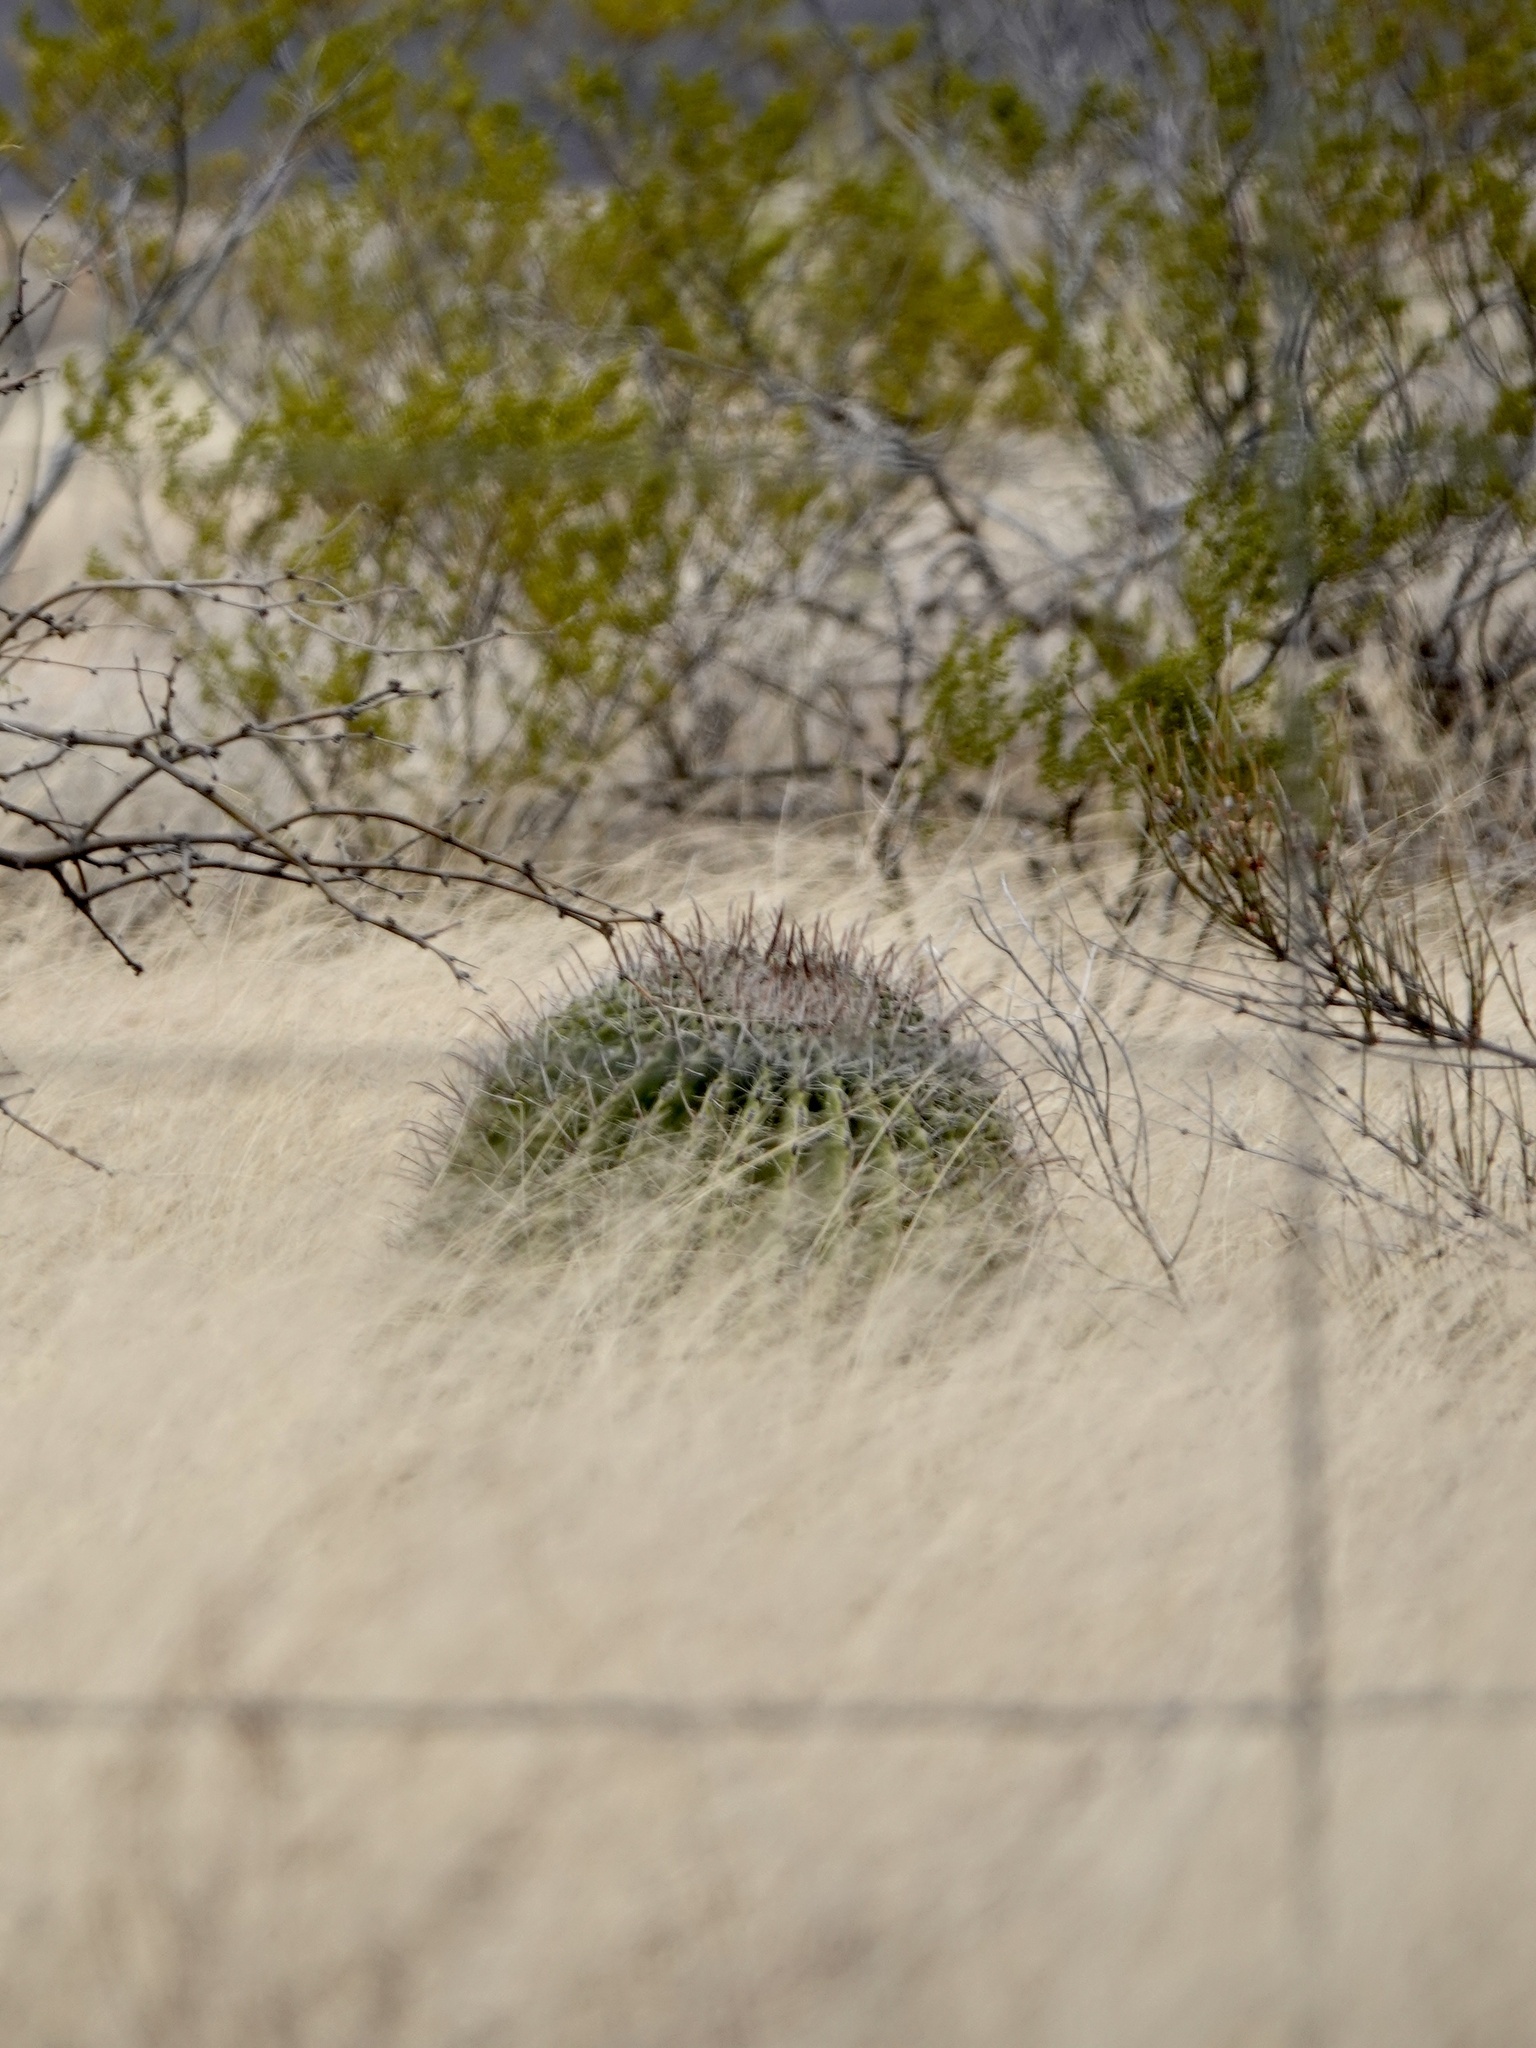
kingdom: Plantae
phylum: Tracheophyta
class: Magnoliopsida
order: Caryophyllales
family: Cactaceae
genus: Ferocactus
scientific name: Ferocactus wislizeni
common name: Candy barrel cactus
